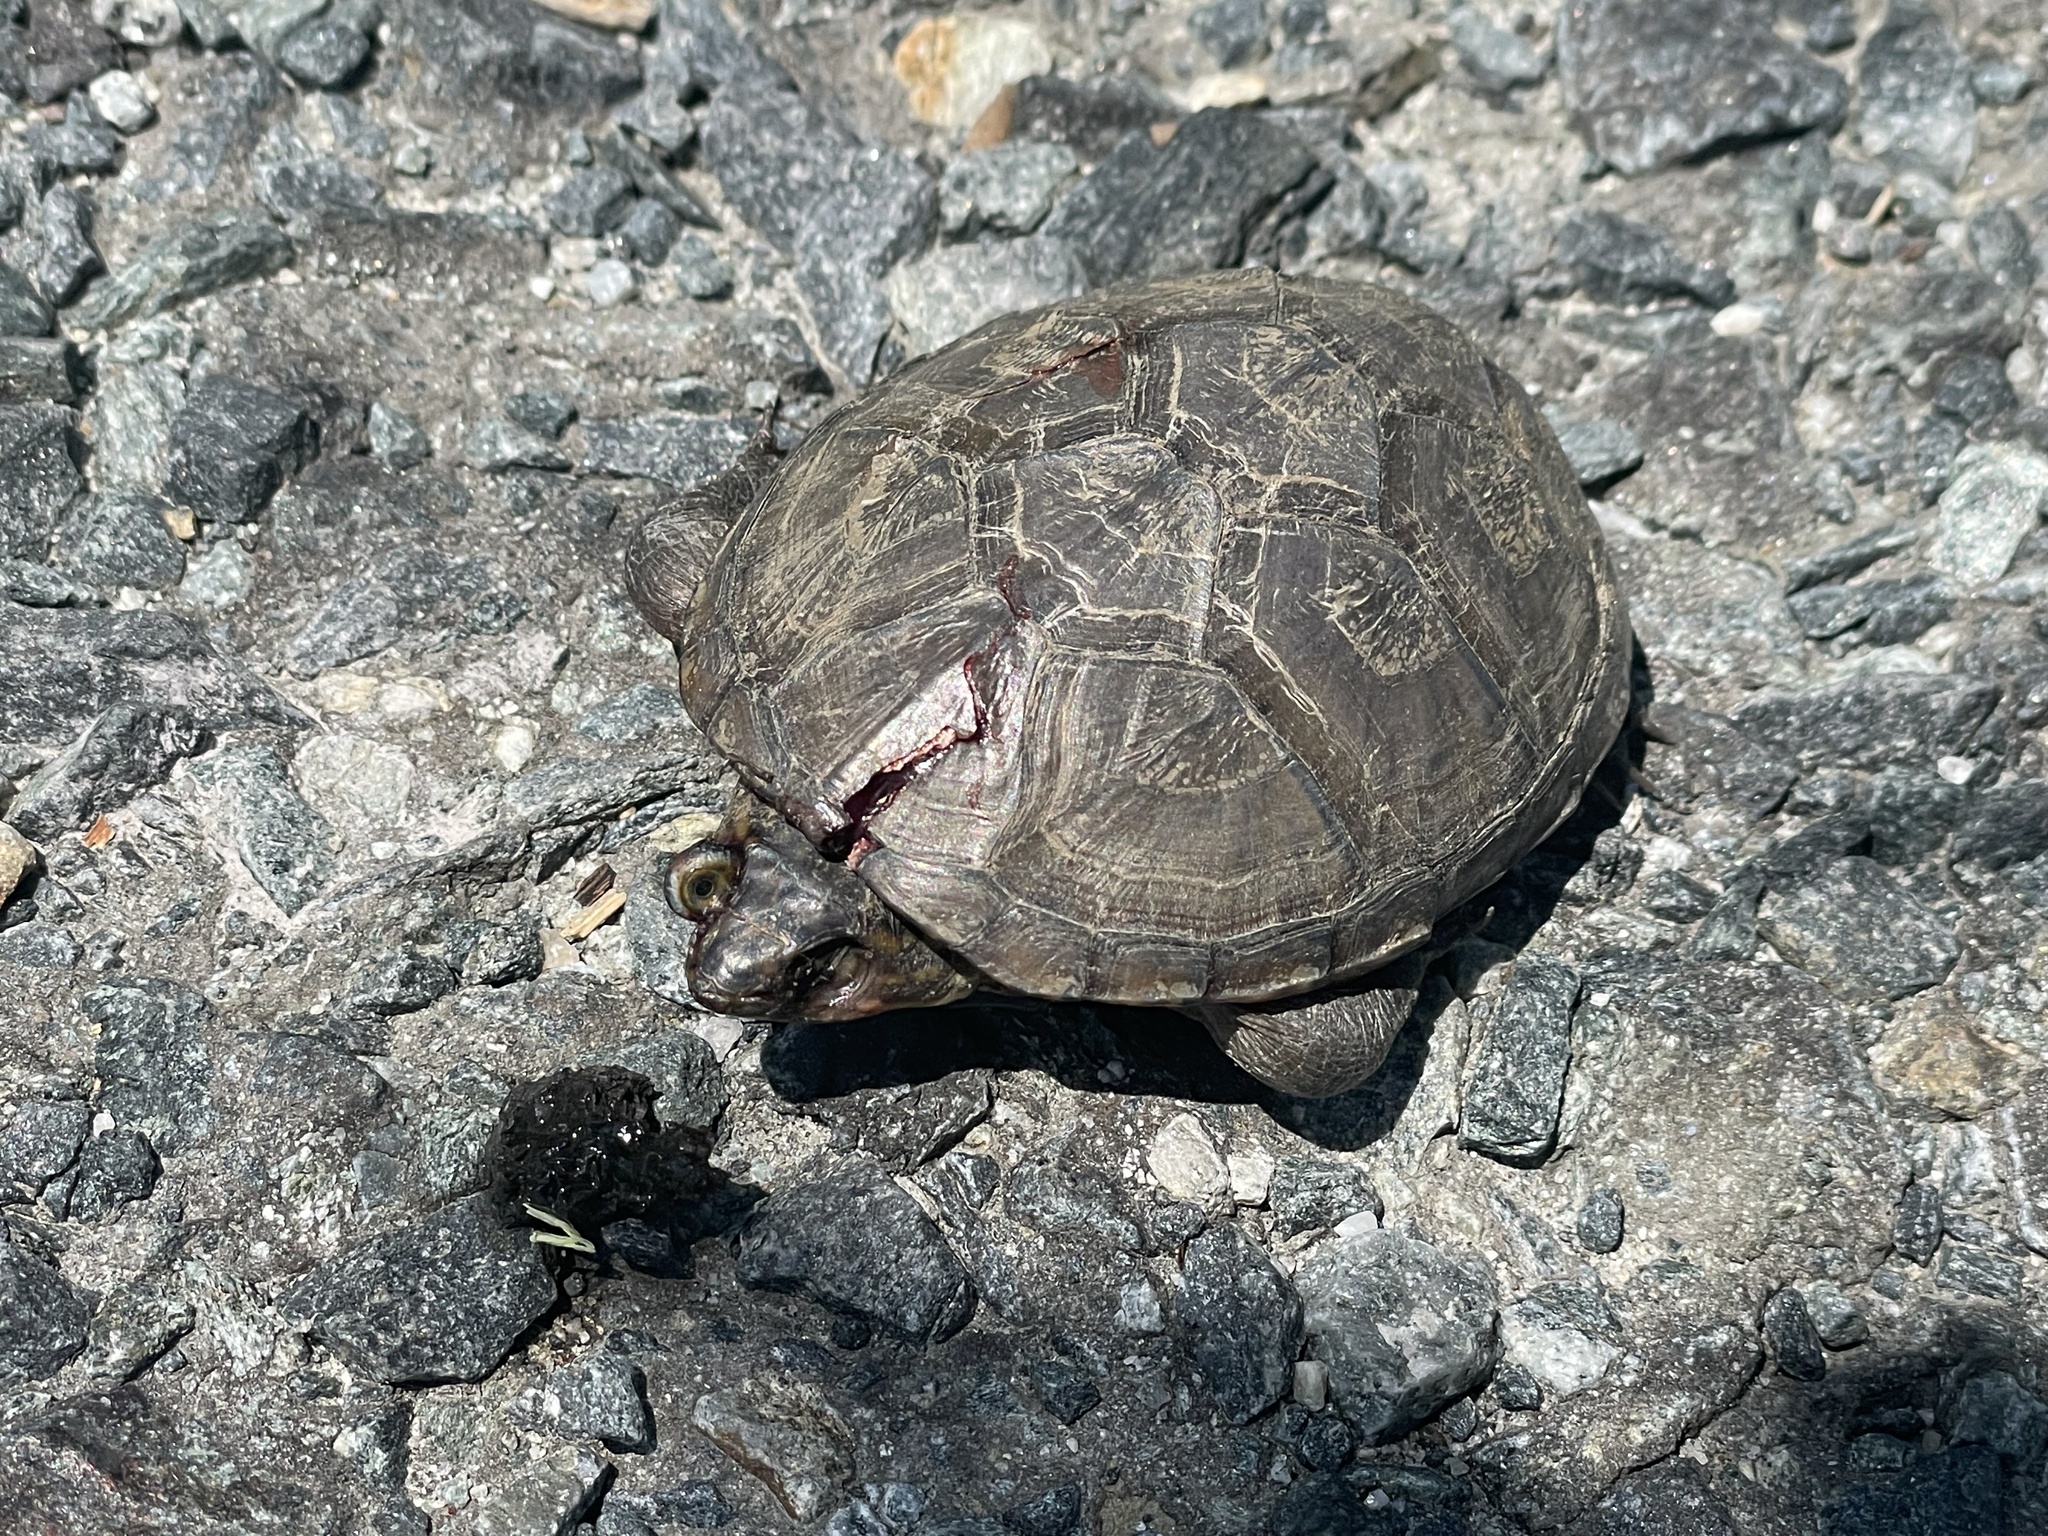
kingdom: Animalia
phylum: Chordata
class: Testudines
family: Kinosternidae
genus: Kinosternon
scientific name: Kinosternon subrubrum
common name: Eastern mud turtle
